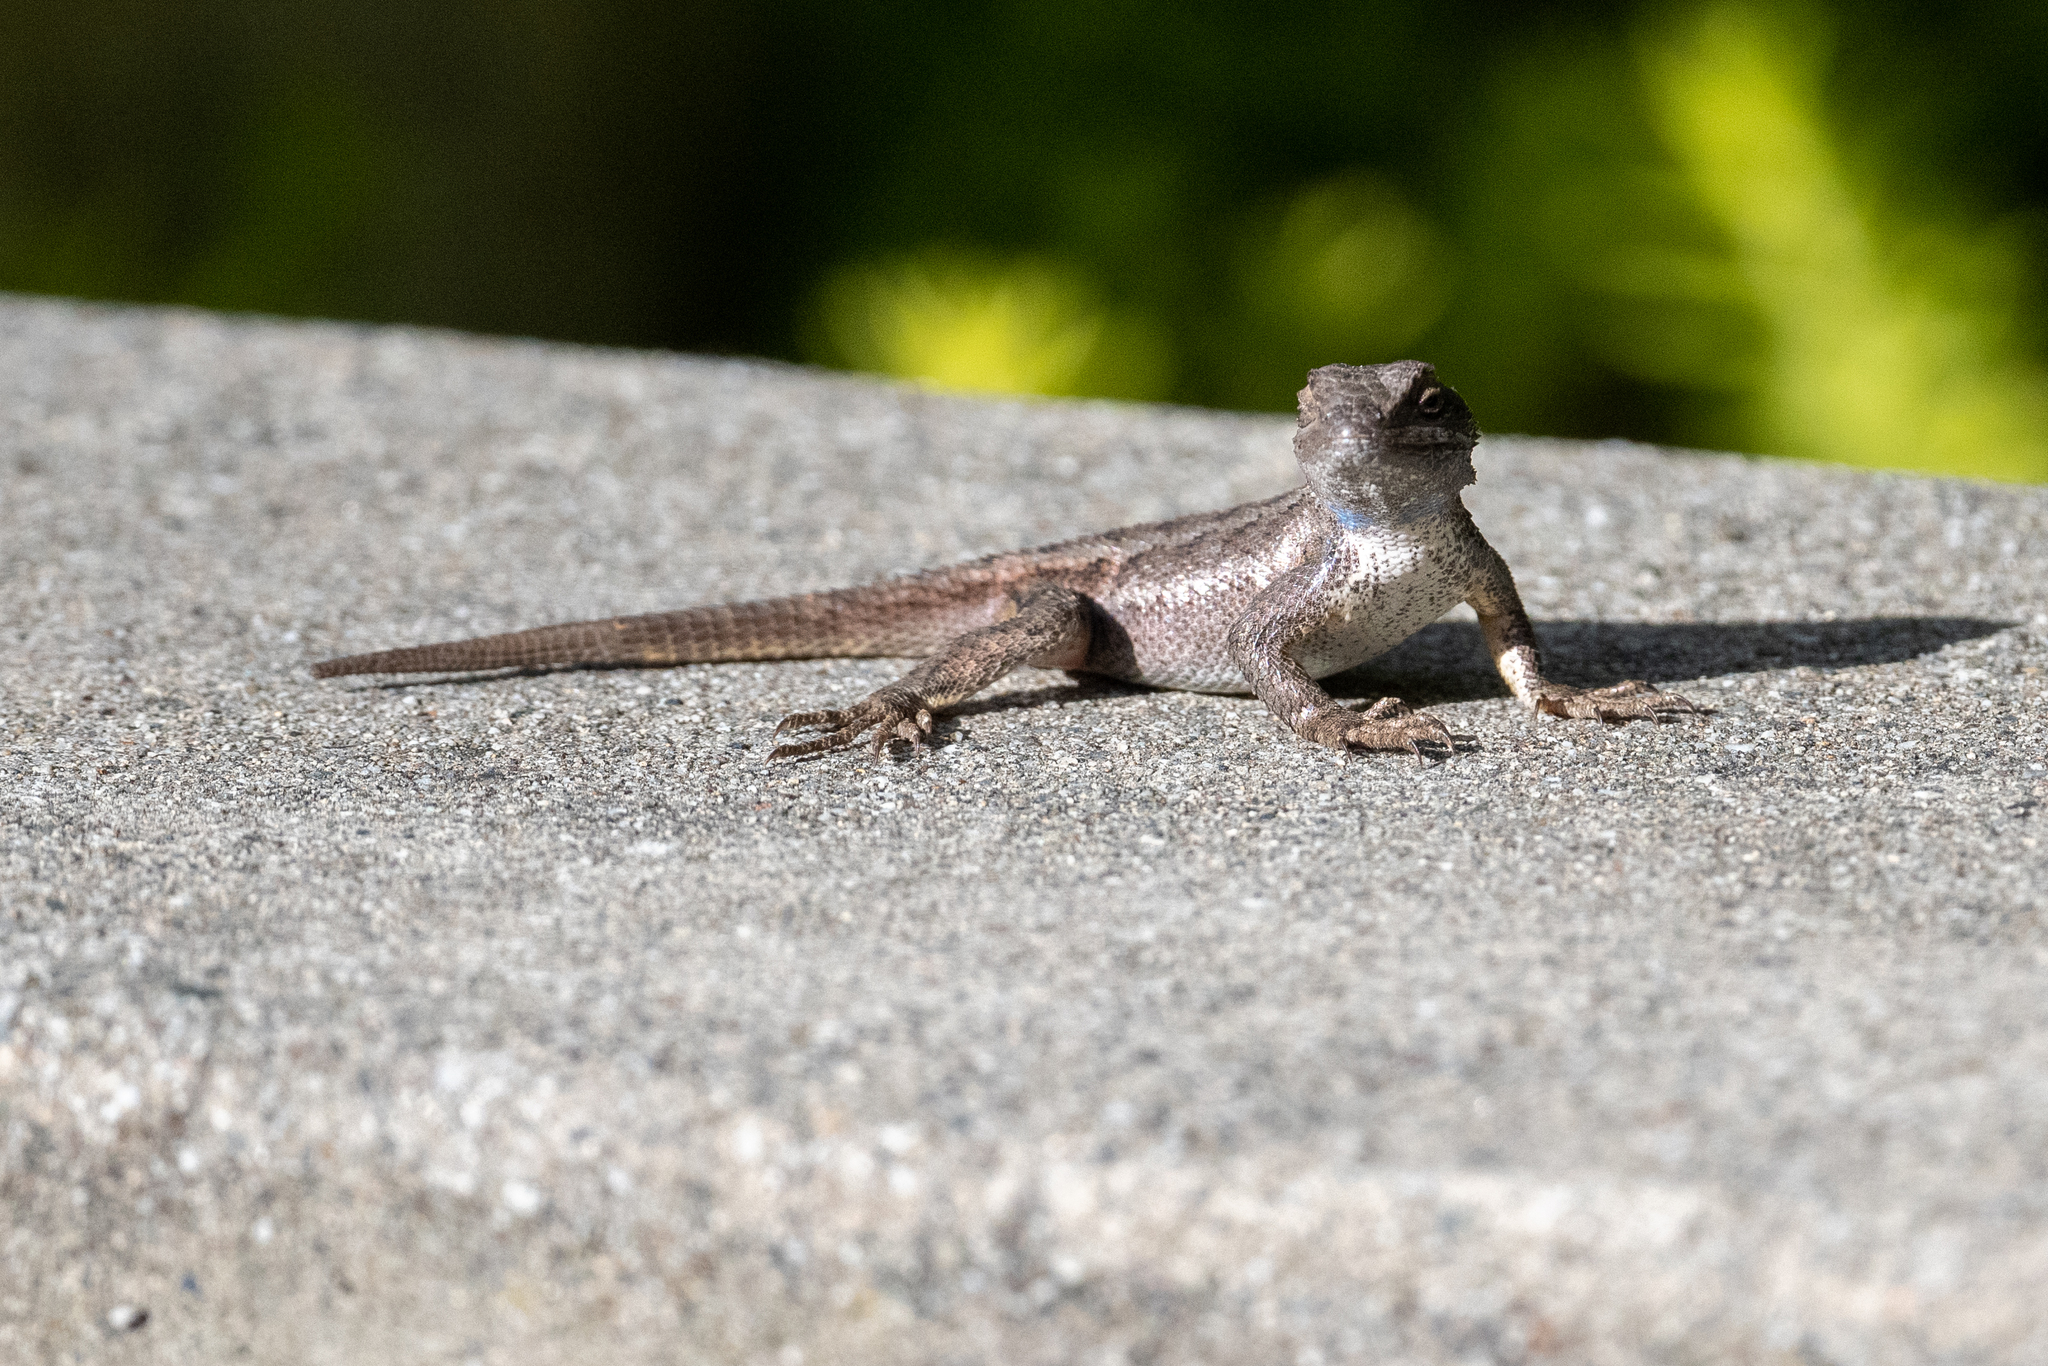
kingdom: Animalia
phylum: Chordata
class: Squamata
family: Phrynosomatidae
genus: Sceloporus
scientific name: Sceloporus occidentalis
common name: Western fence lizard
